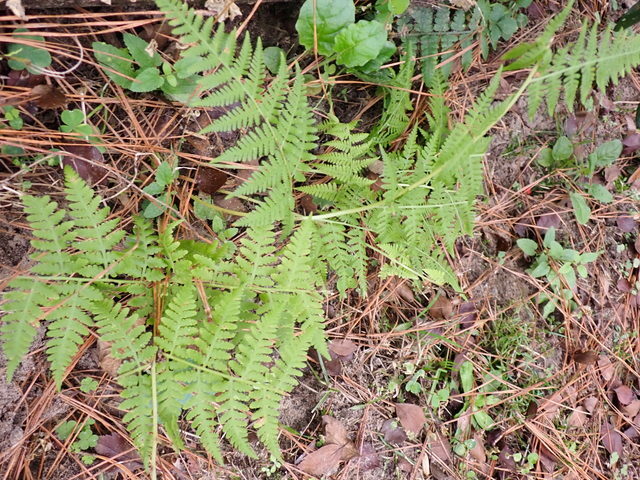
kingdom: Plantae
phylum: Tracheophyta
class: Polypodiopsida
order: Polypodiales
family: Thelypteridaceae
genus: Macrothelypteris
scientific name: Macrothelypteris torresiana
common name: Swordfern
